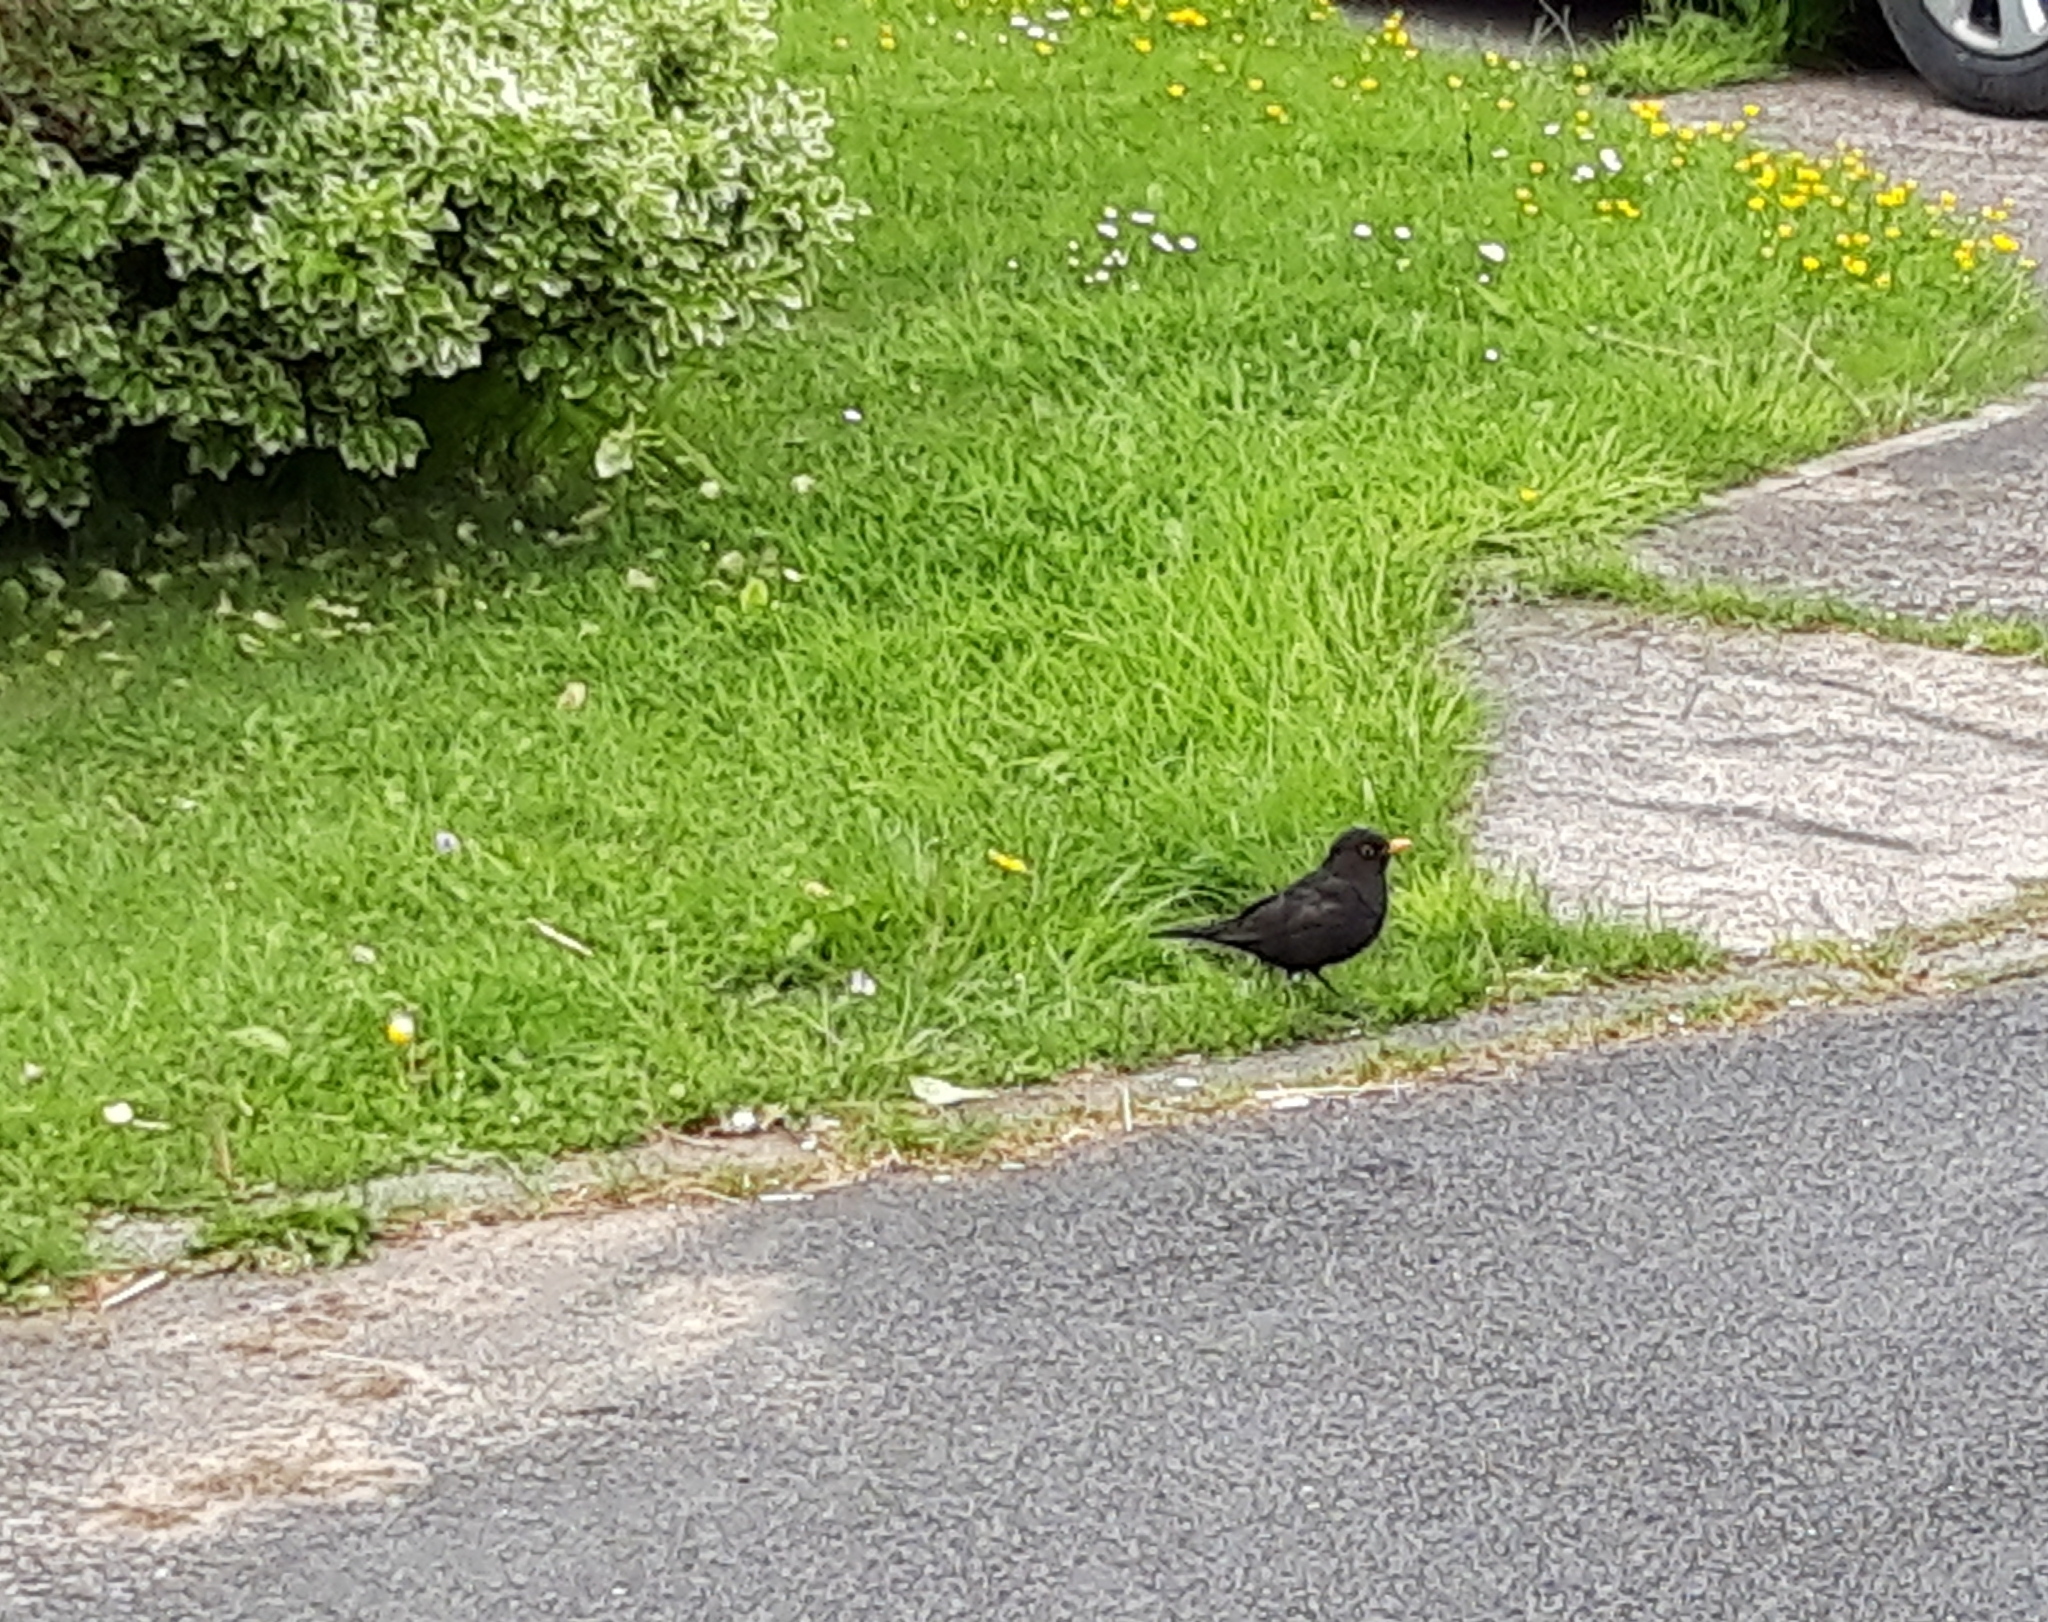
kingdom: Animalia
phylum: Chordata
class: Aves
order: Passeriformes
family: Turdidae
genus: Turdus
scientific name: Turdus merula
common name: Common blackbird
